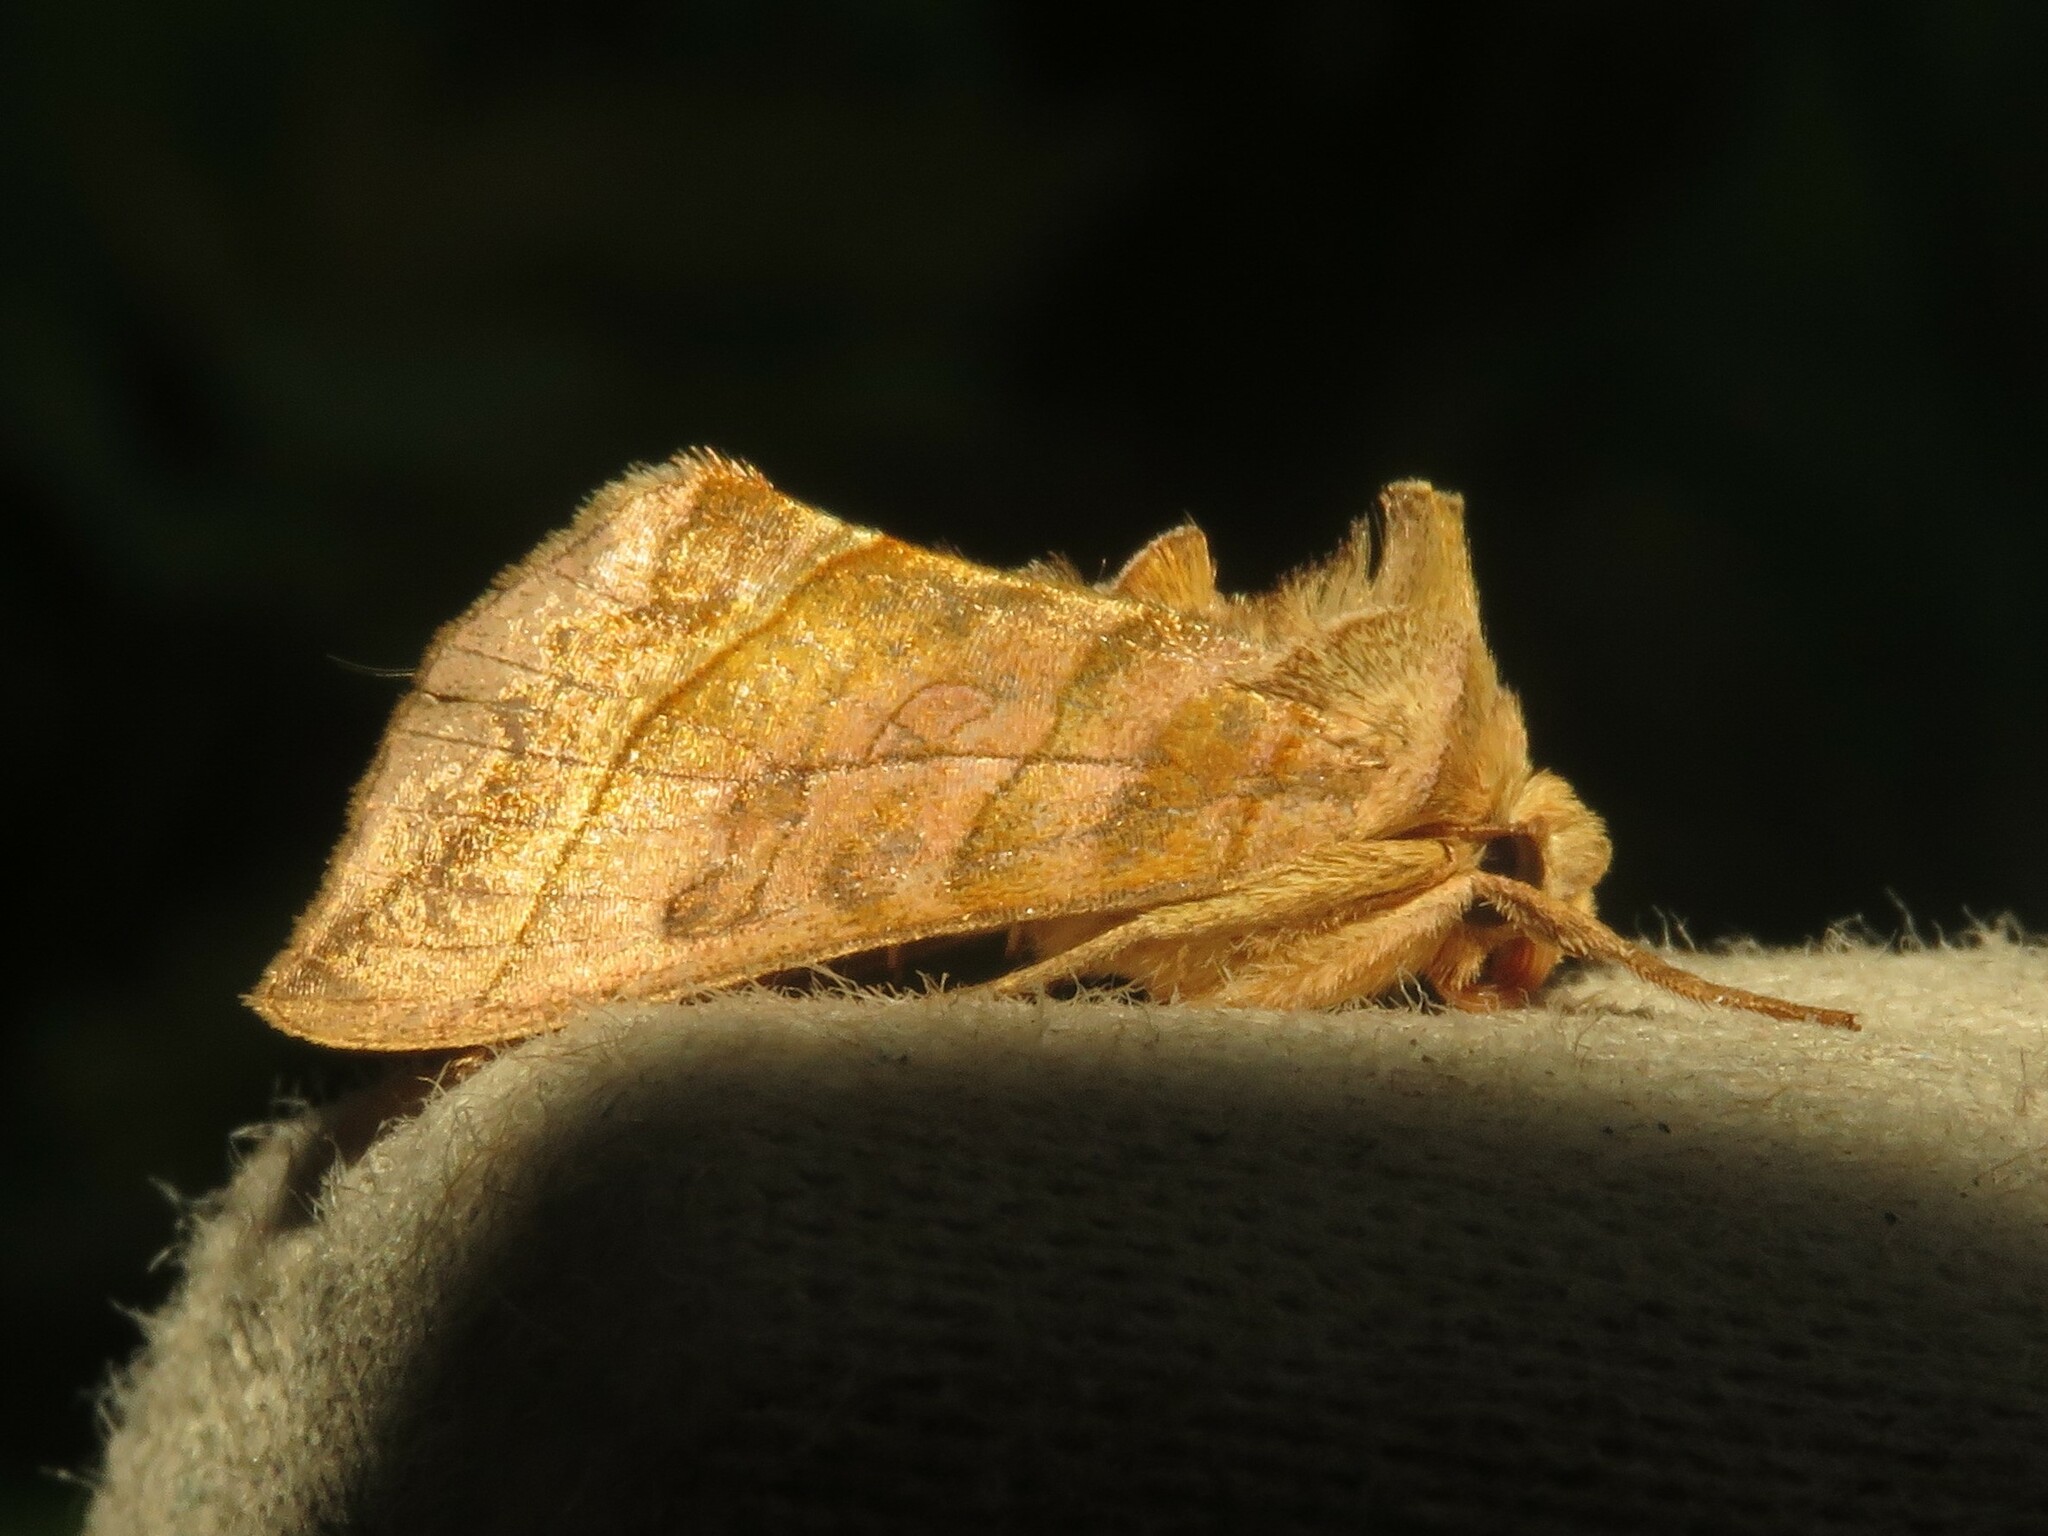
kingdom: Animalia
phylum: Arthropoda
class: Insecta
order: Lepidoptera
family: Noctuidae
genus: Diachrysia
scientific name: Diachrysia aereoides
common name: Dark-spotted looper moth
